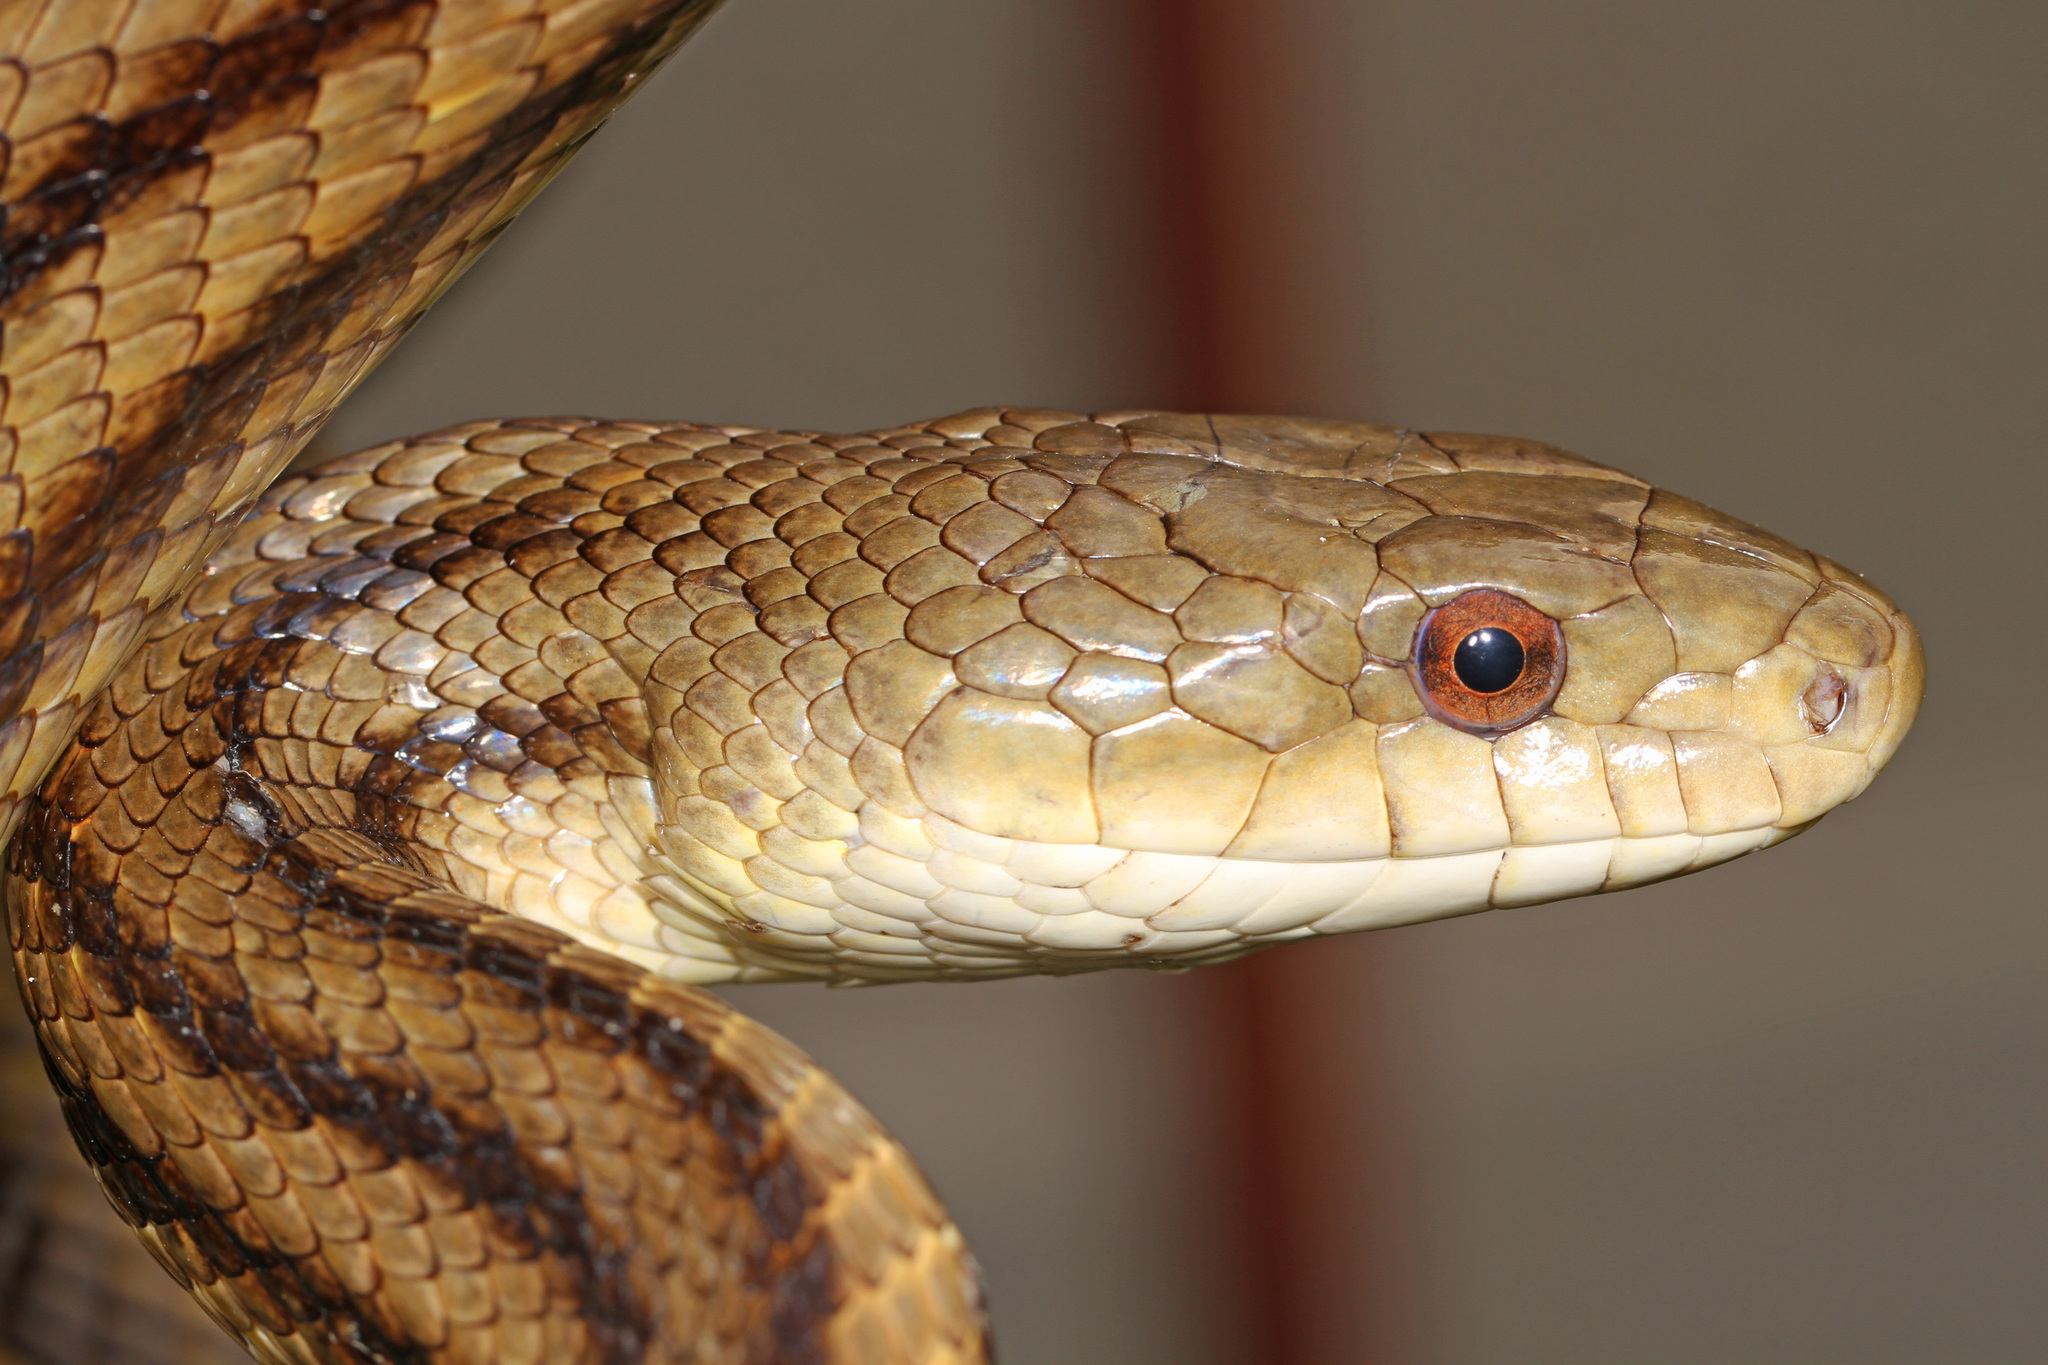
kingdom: Animalia
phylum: Chordata
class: Squamata
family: Colubridae
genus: Pantherophis
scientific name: Pantherophis alleghaniensis
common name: Eastern rat snake
